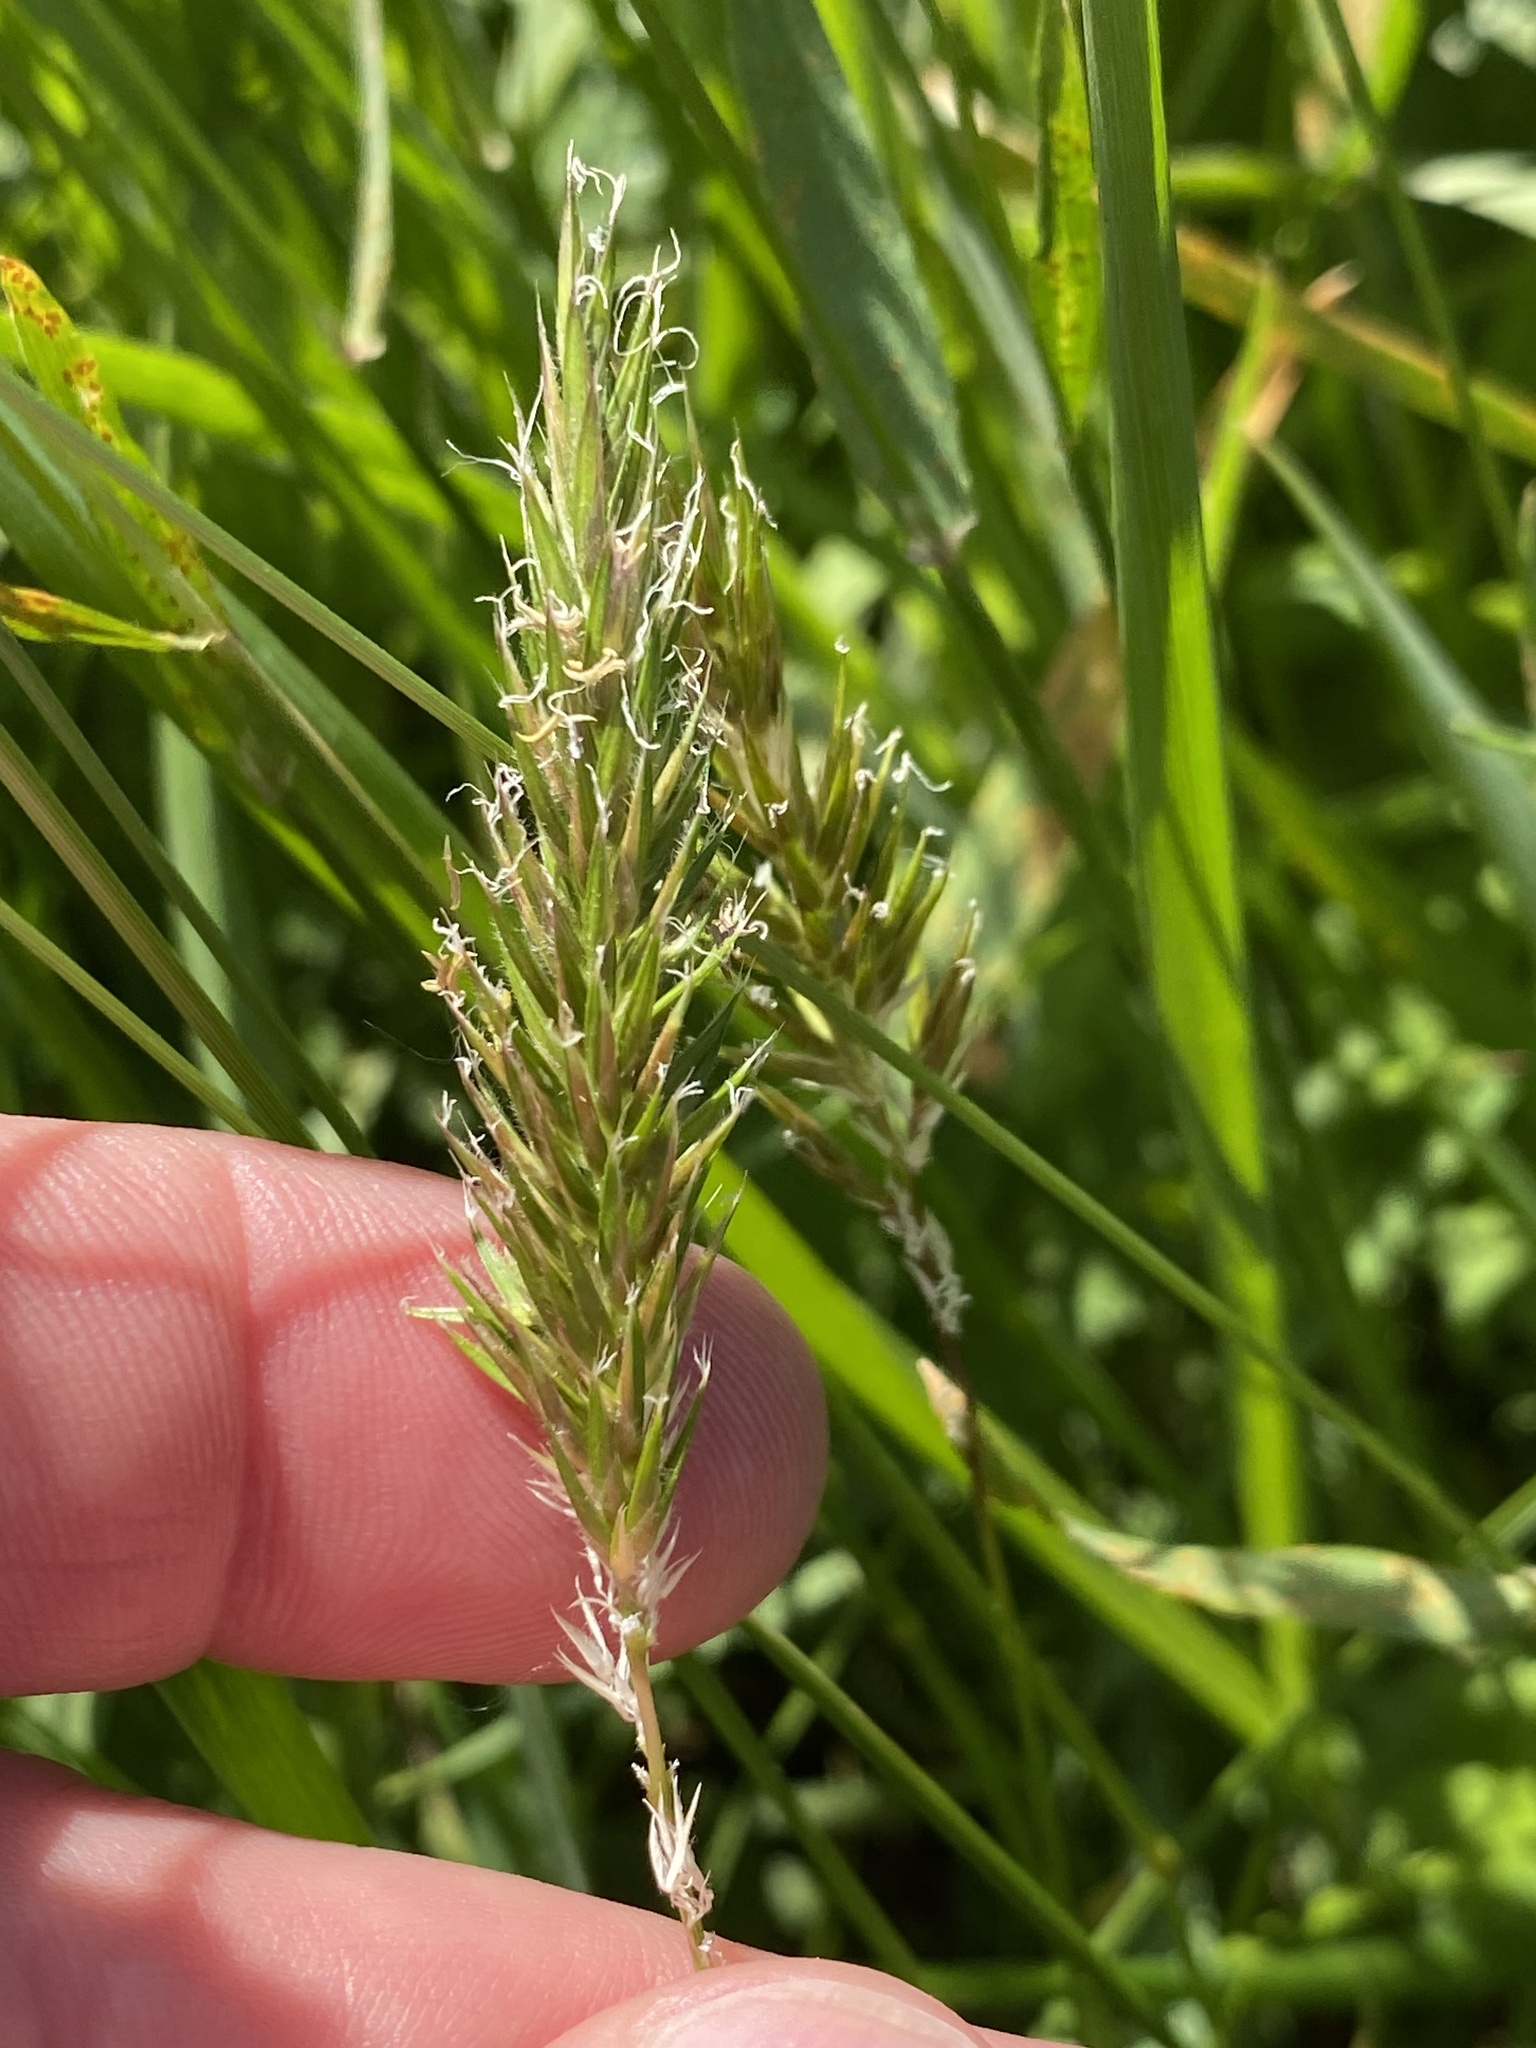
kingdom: Plantae
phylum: Tracheophyta
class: Liliopsida
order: Poales
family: Poaceae
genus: Anthoxanthum
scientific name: Anthoxanthum odoratum
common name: Sweet vernalgrass
